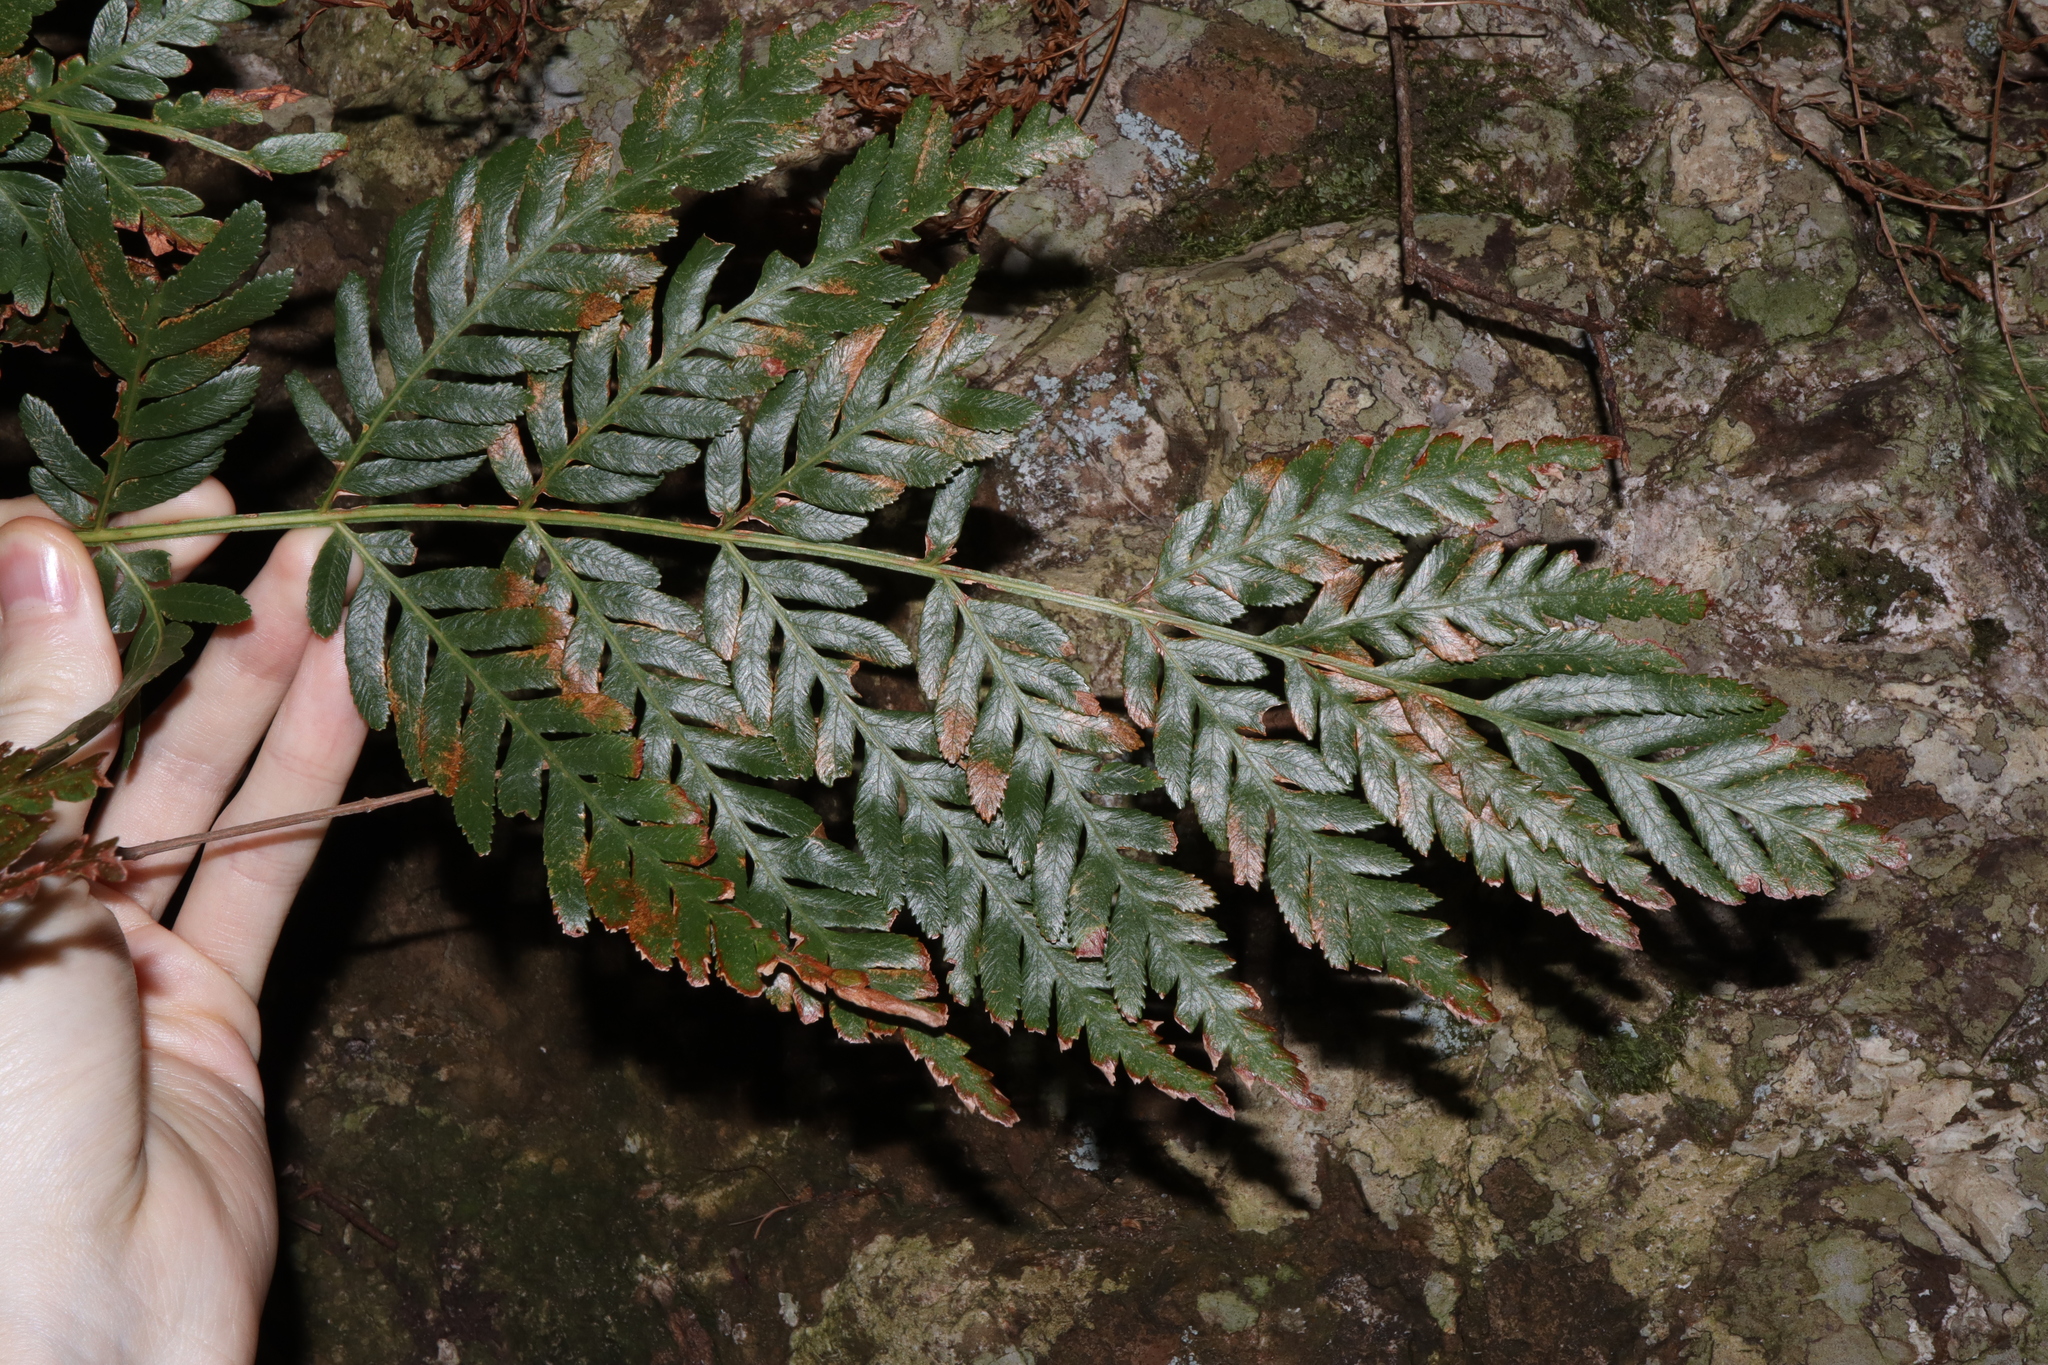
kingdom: Plantae
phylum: Tracheophyta
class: Polypodiopsida
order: Osmundales
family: Osmundaceae
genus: Todea
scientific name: Todea barbara
